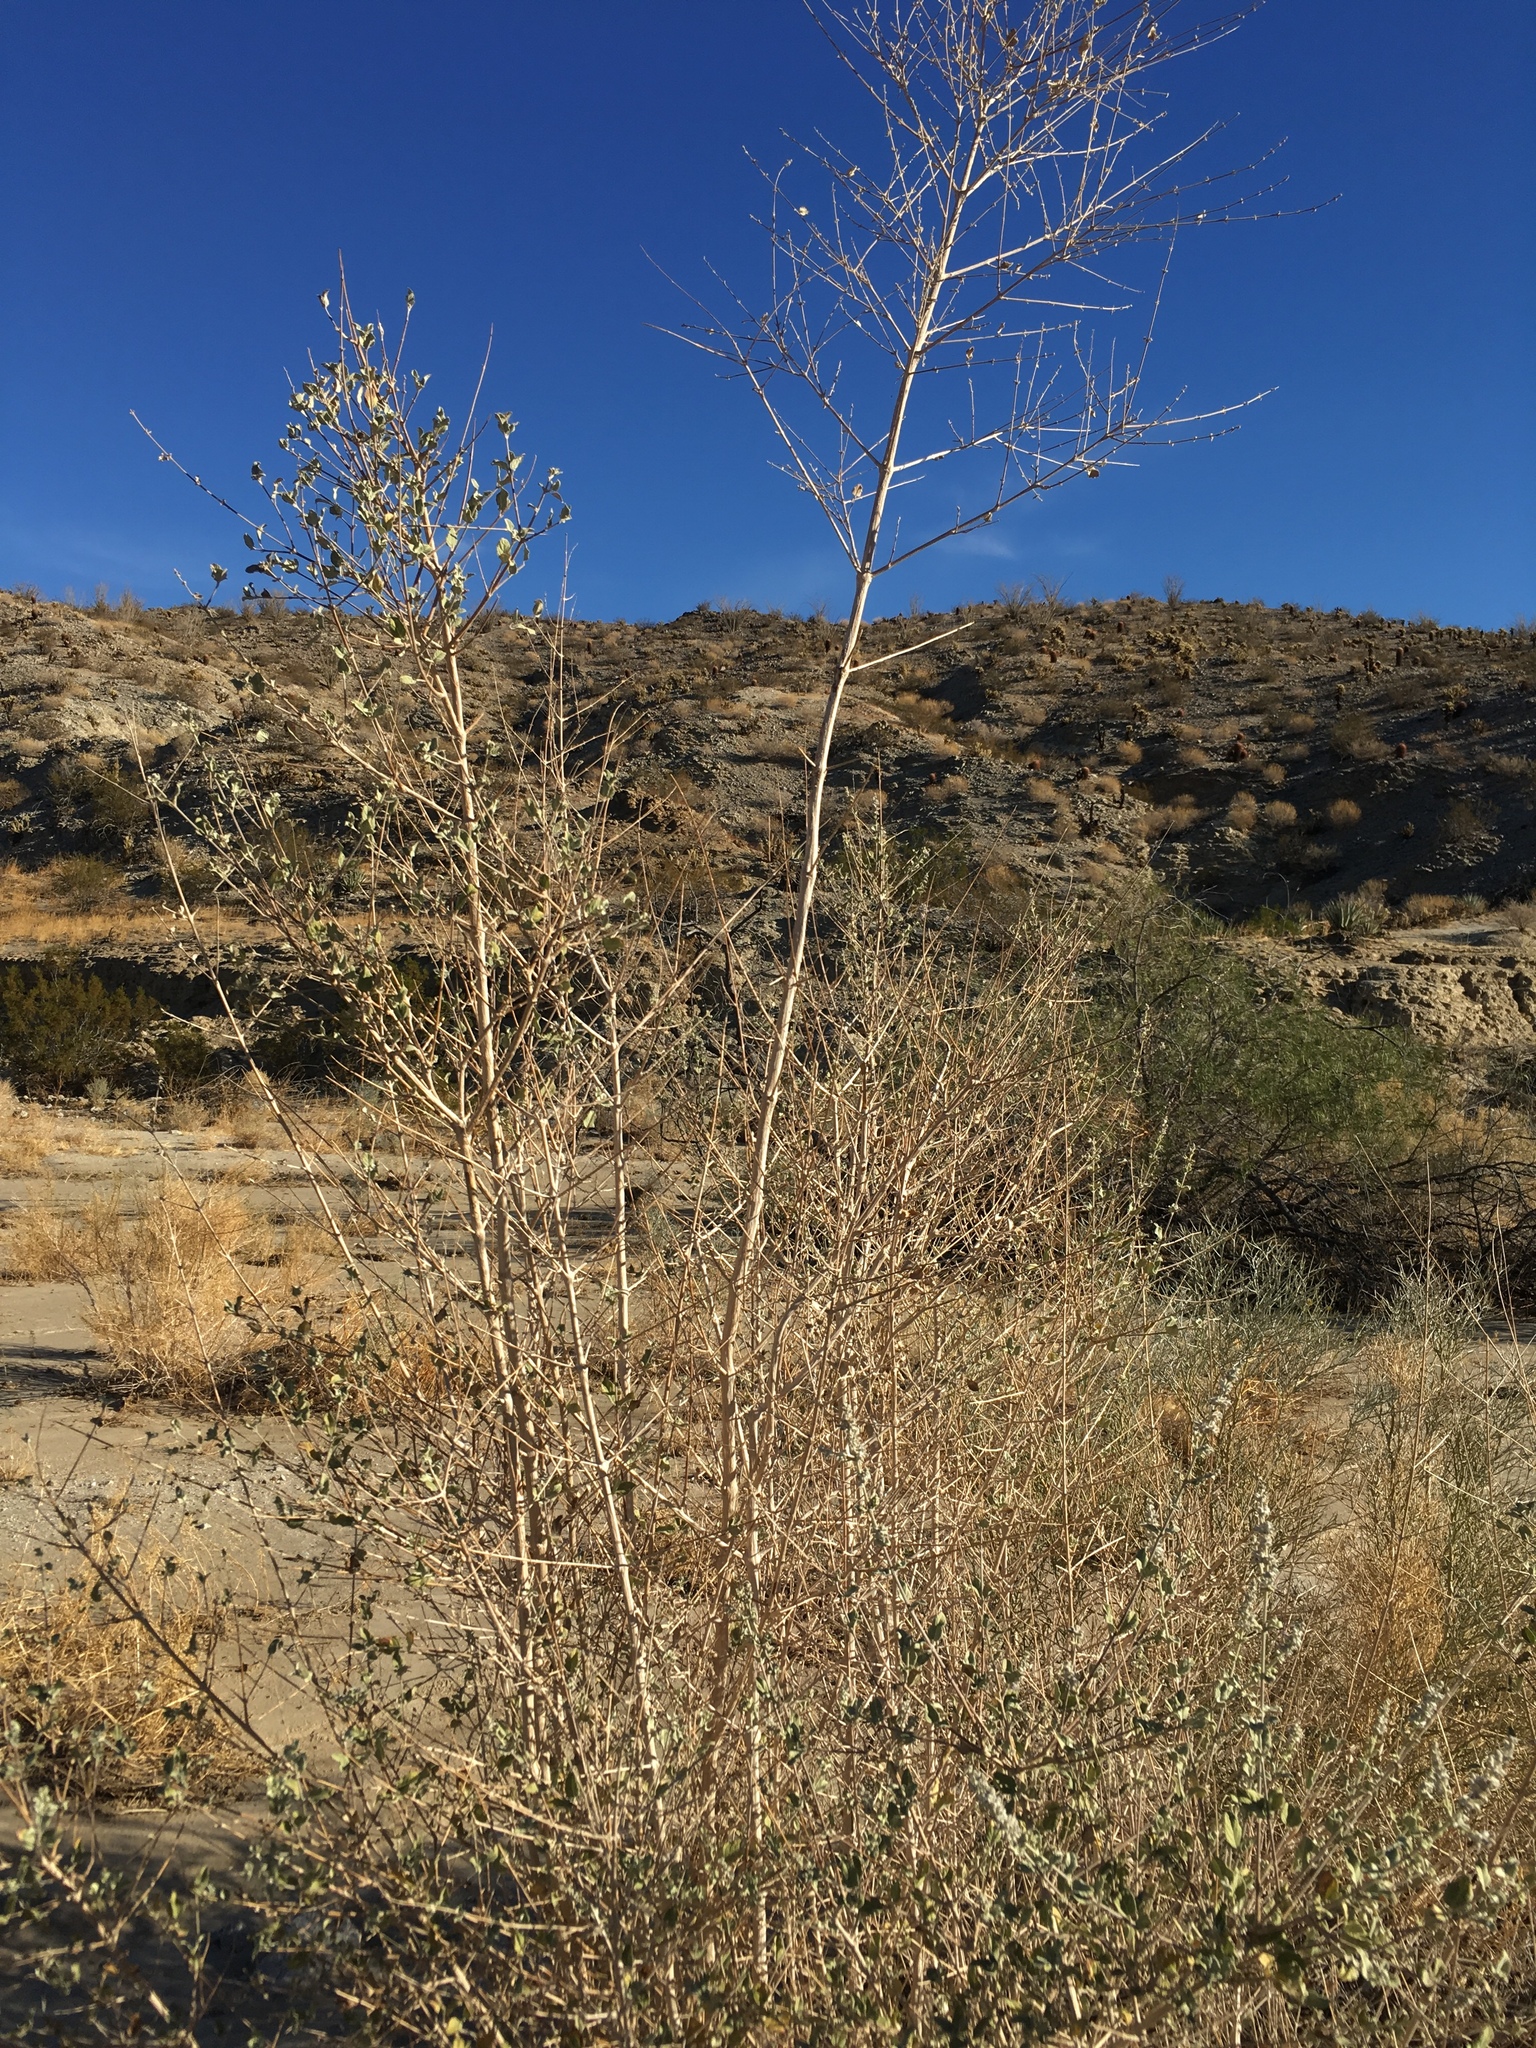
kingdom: Plantae
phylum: Tracheophyta
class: Magnoliopsida
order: Lamiales
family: Lamiaceae
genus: Condea
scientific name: Condea emoryi
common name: Chia
